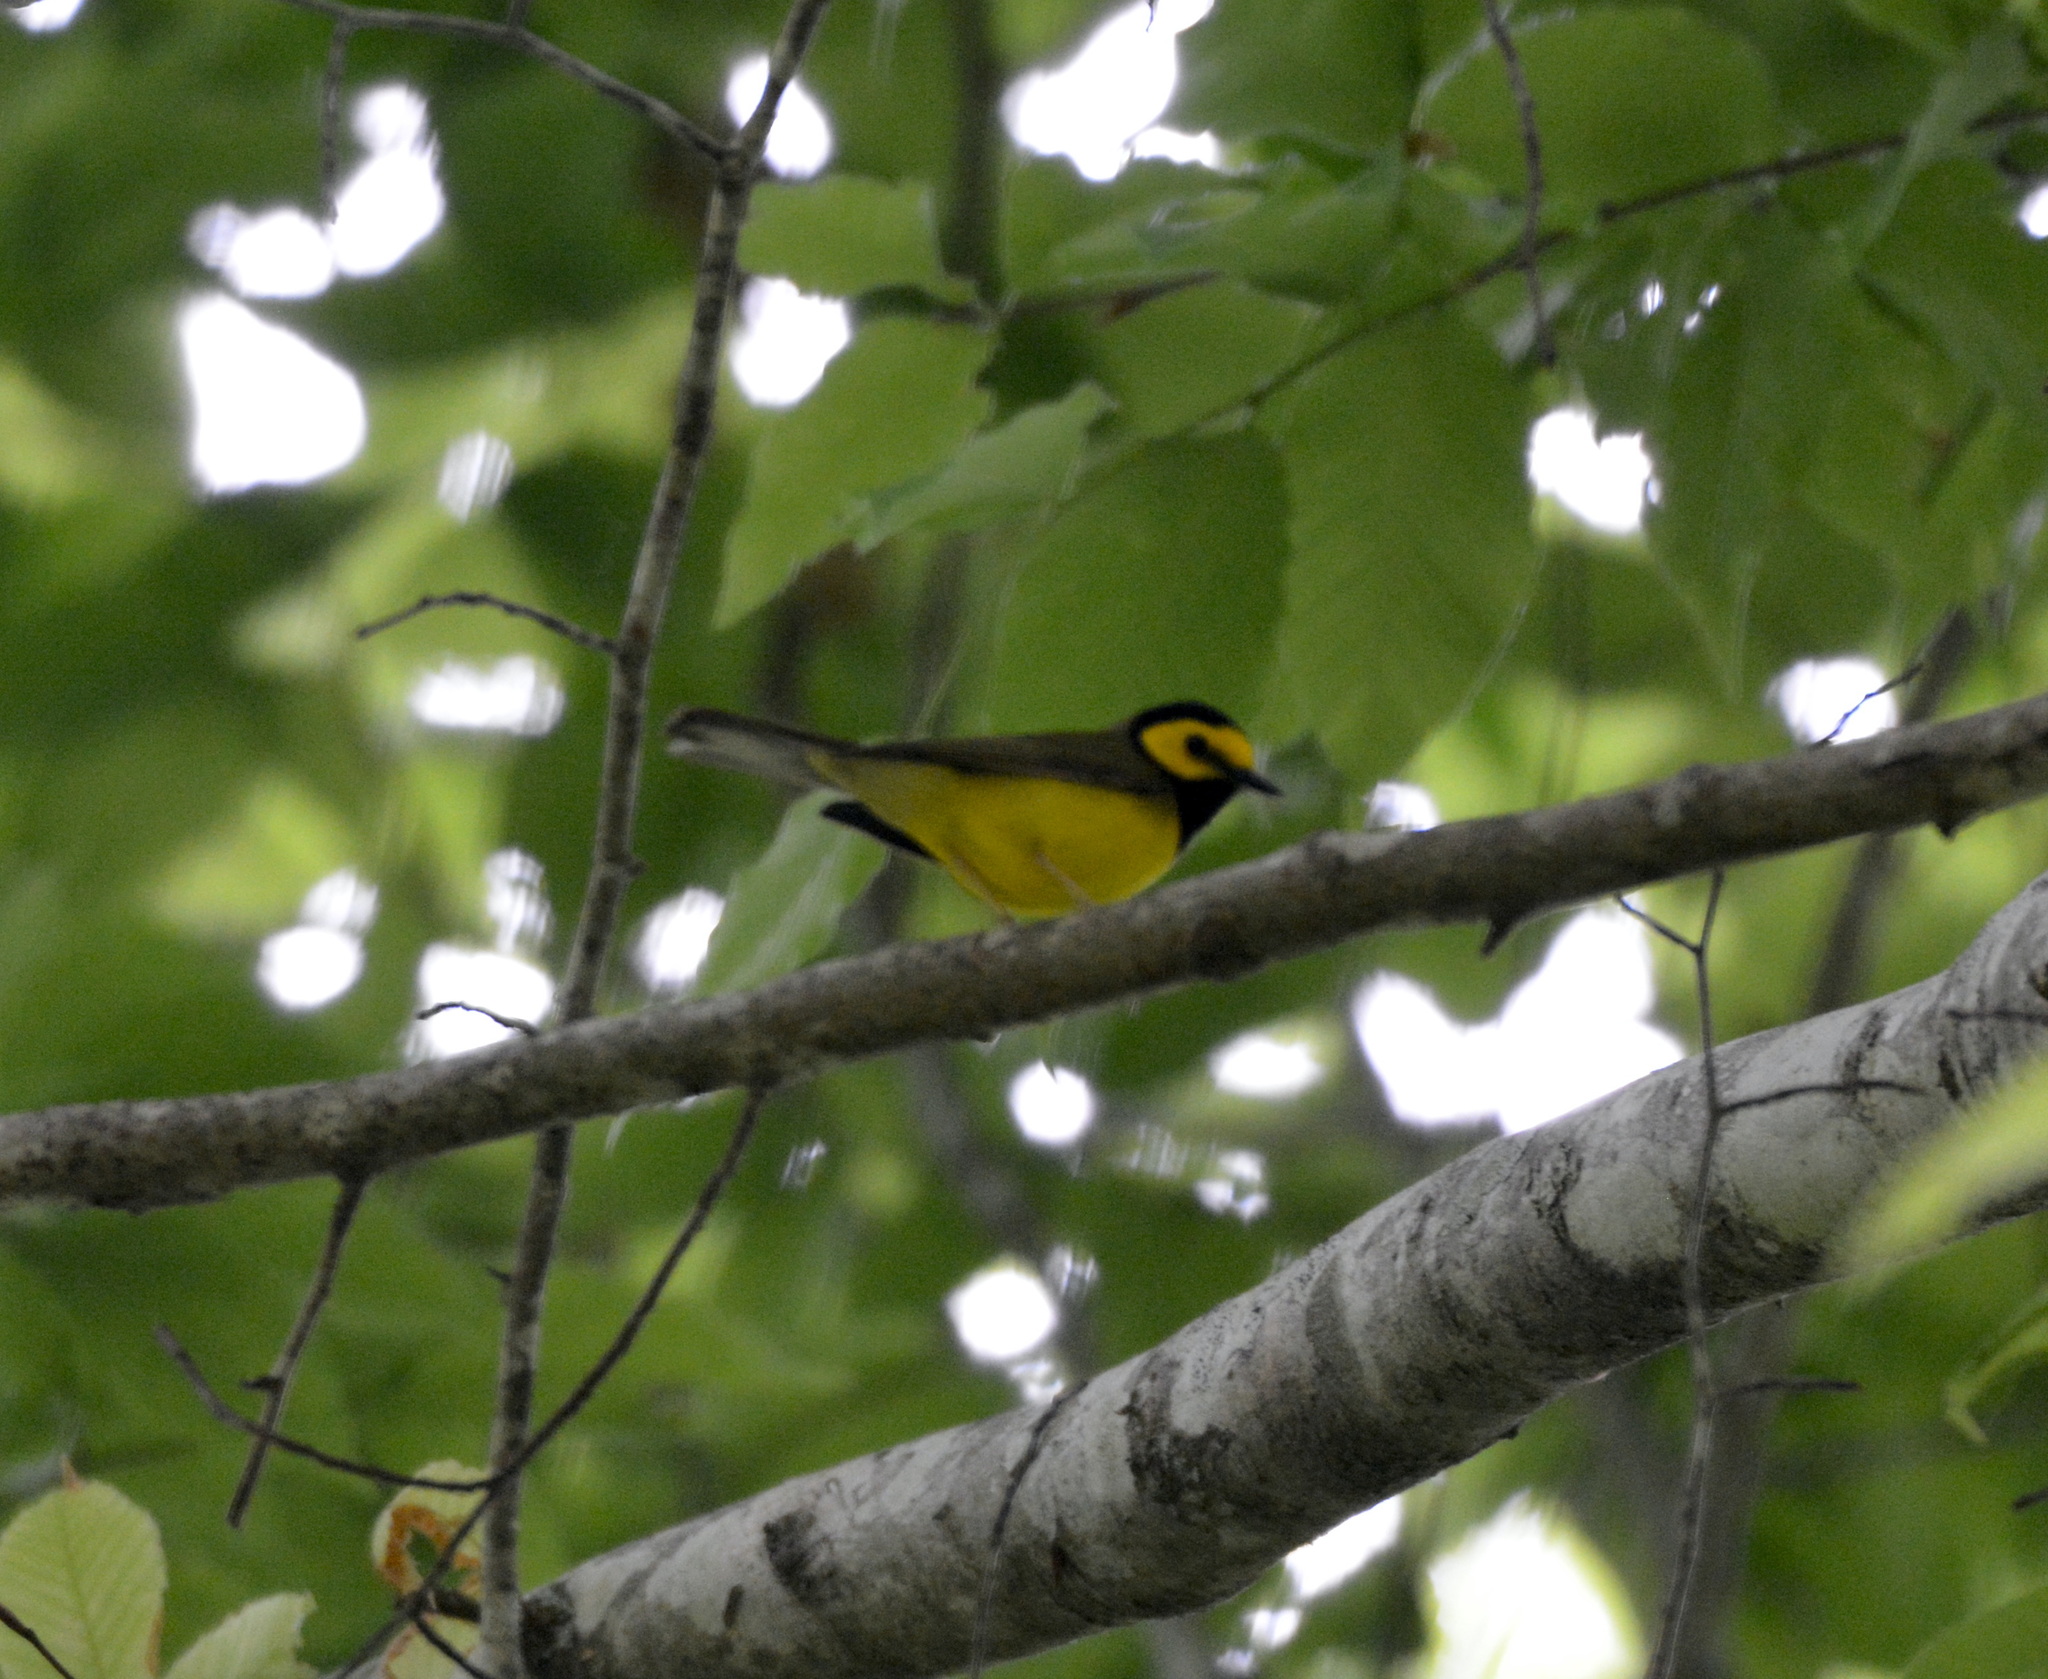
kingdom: Animalia
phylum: Chordata
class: Aves
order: Passeriformes
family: Parulidae
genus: Setophaga
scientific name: Setophaga citrina
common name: Hooded warbler
